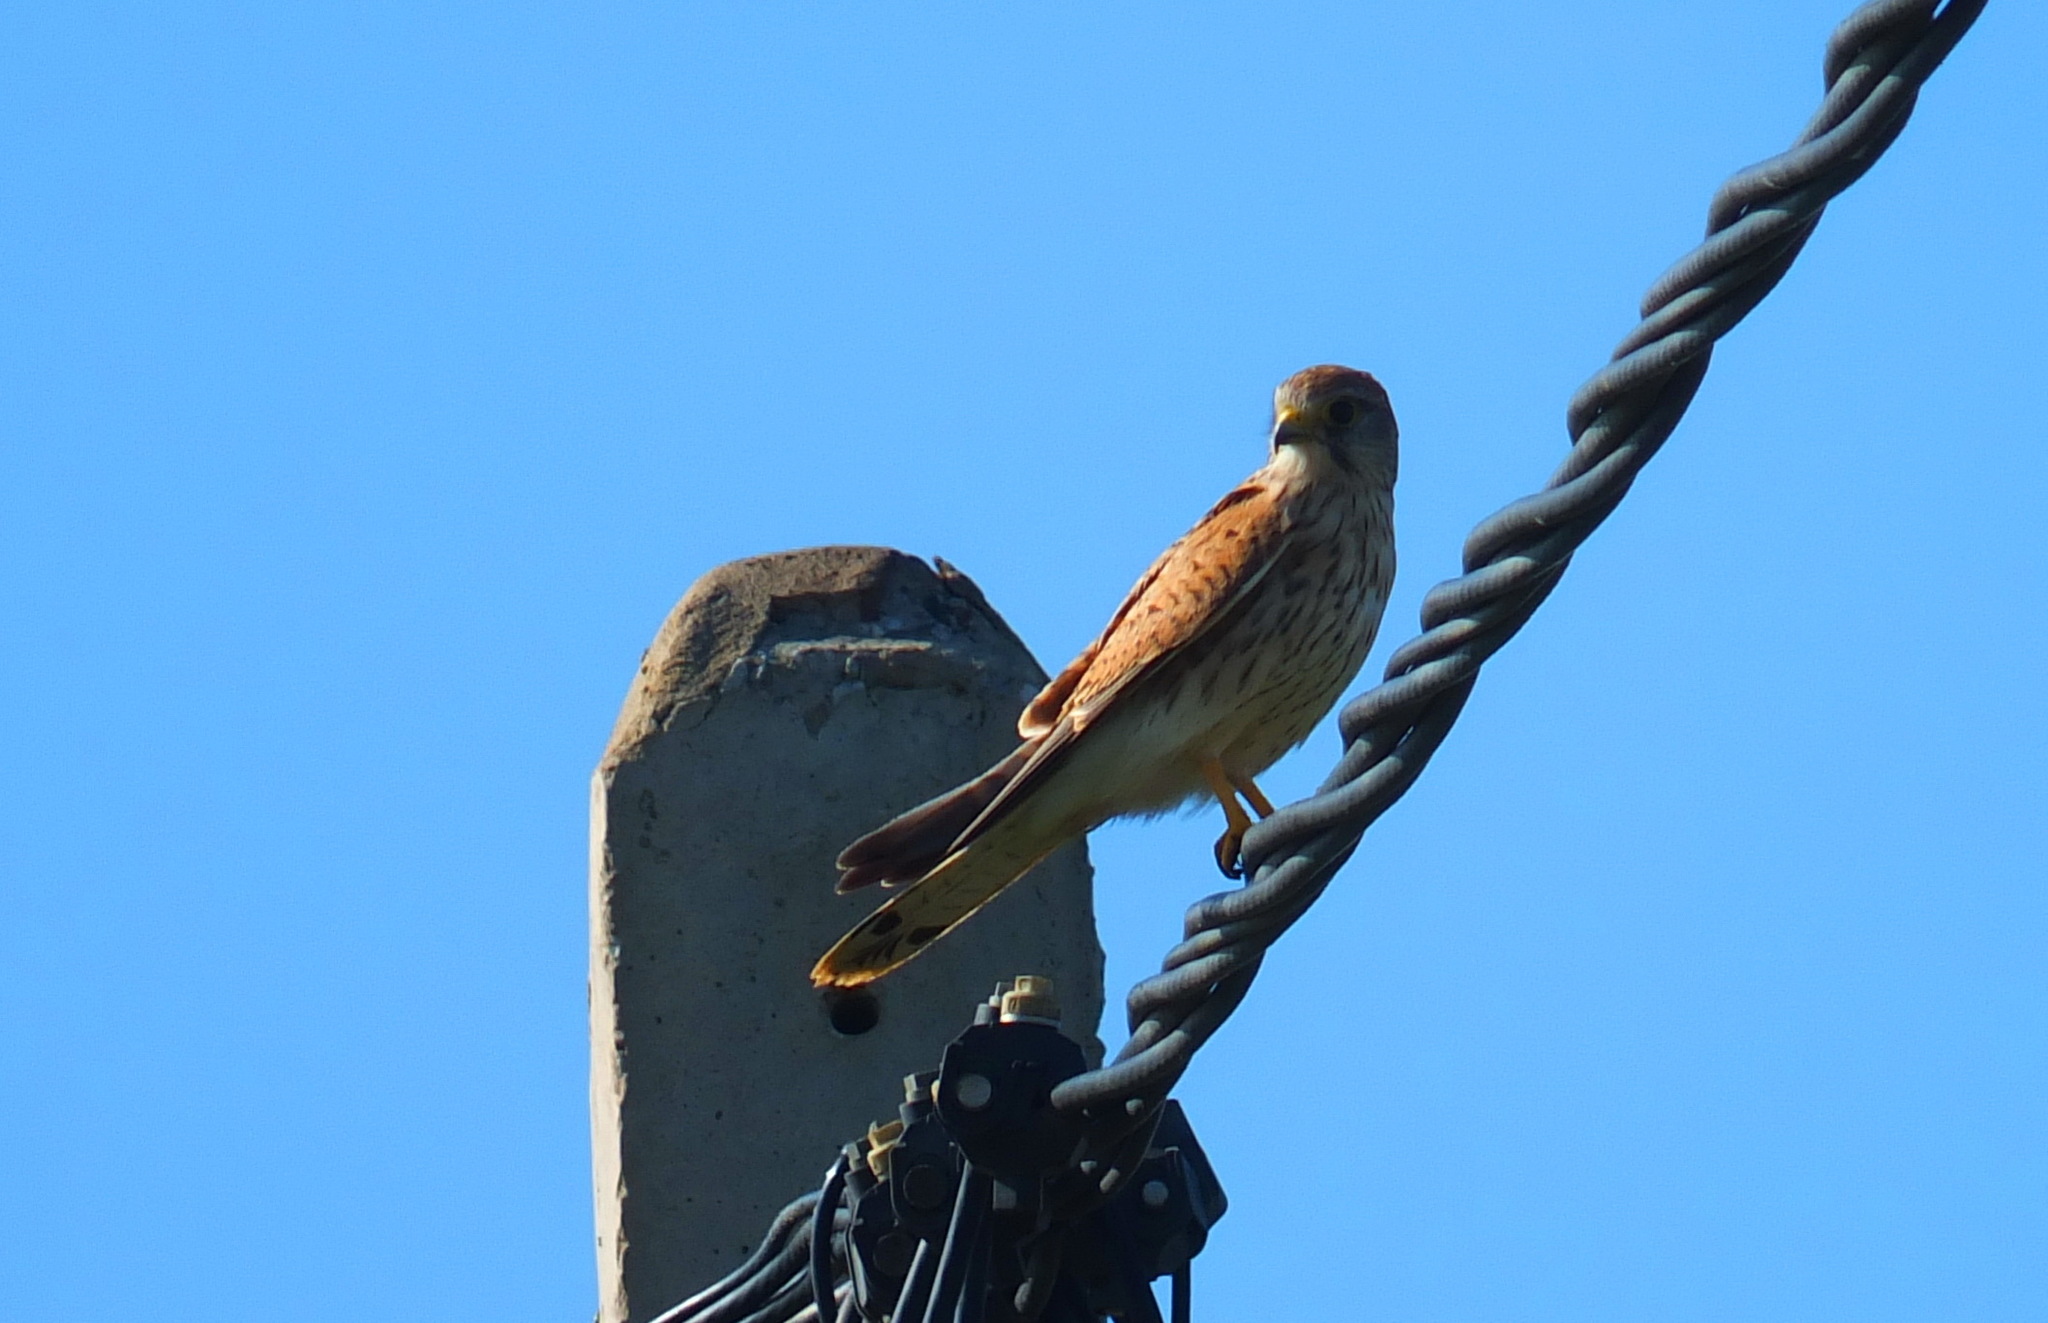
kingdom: Animalia
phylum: Chordata
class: Aves
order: Falconiformes
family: Falconidae
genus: Falco
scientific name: Falco tinnunculus
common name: Common kestrel
